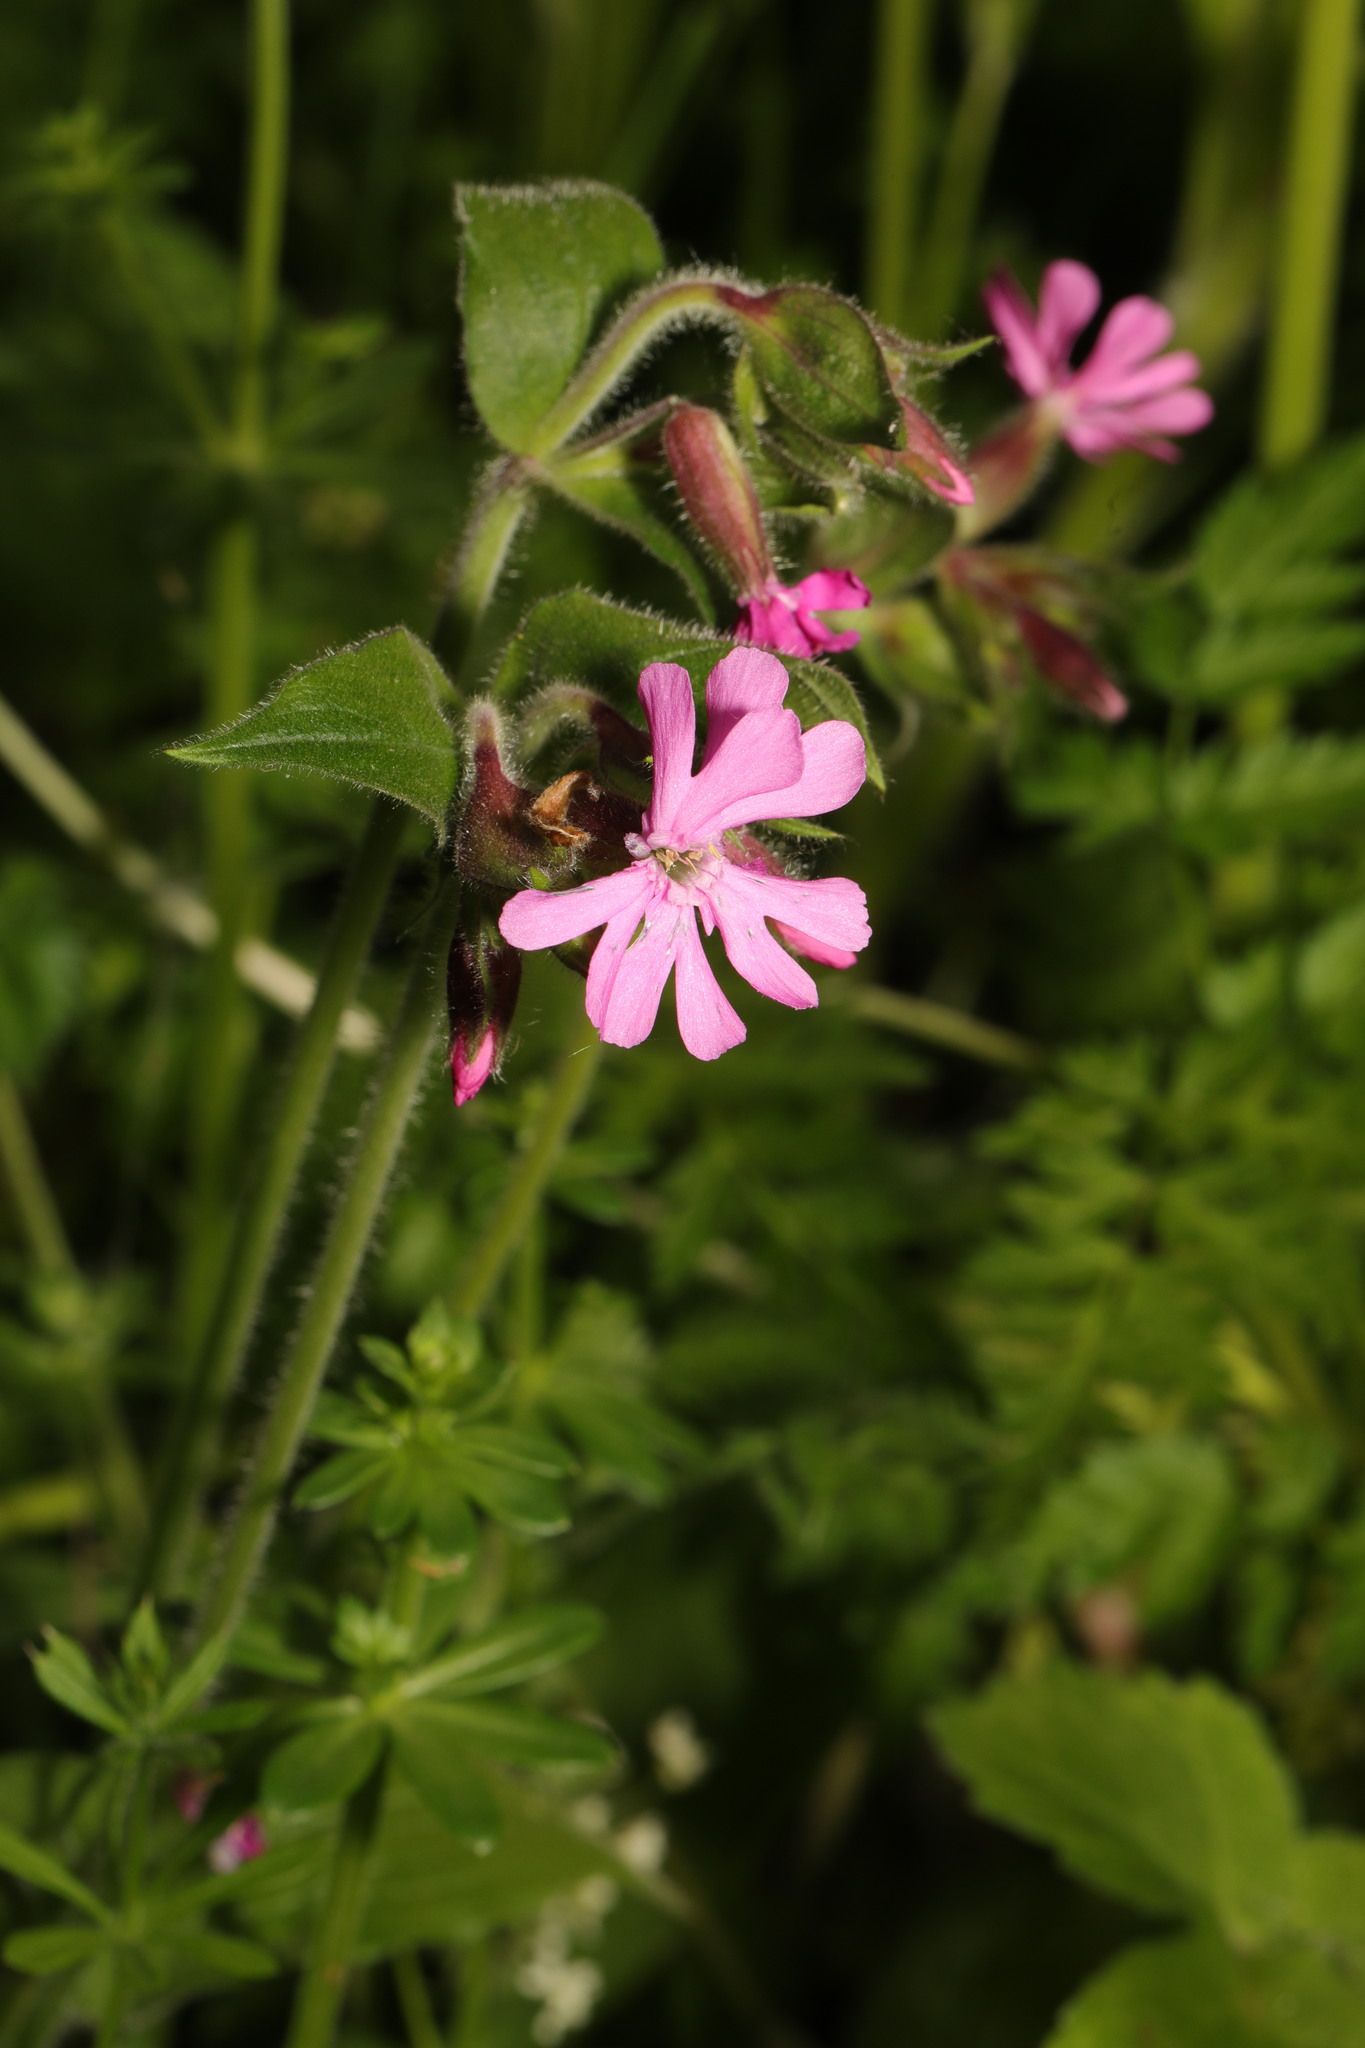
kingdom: Plantae
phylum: Tracheophyta
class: Magnoliopsida
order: Caryophyllales
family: Caryophyllaceae
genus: Silene
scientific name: Silene dioica
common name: Red campion
